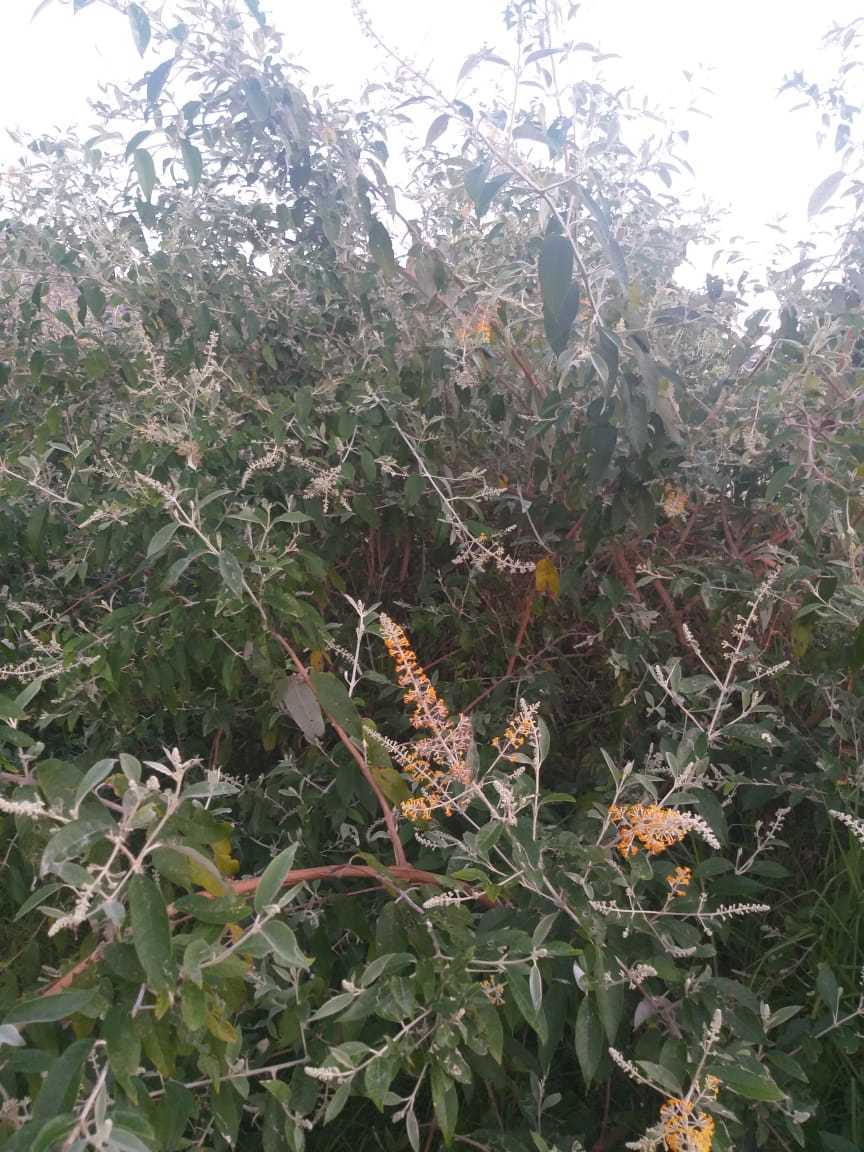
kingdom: Plantae
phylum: Tracheophyta
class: Magnoliopsida
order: Lamiales
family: Scrophulariaceae
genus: Buddleja
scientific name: Buddleja madagascariensis
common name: Smokebush
